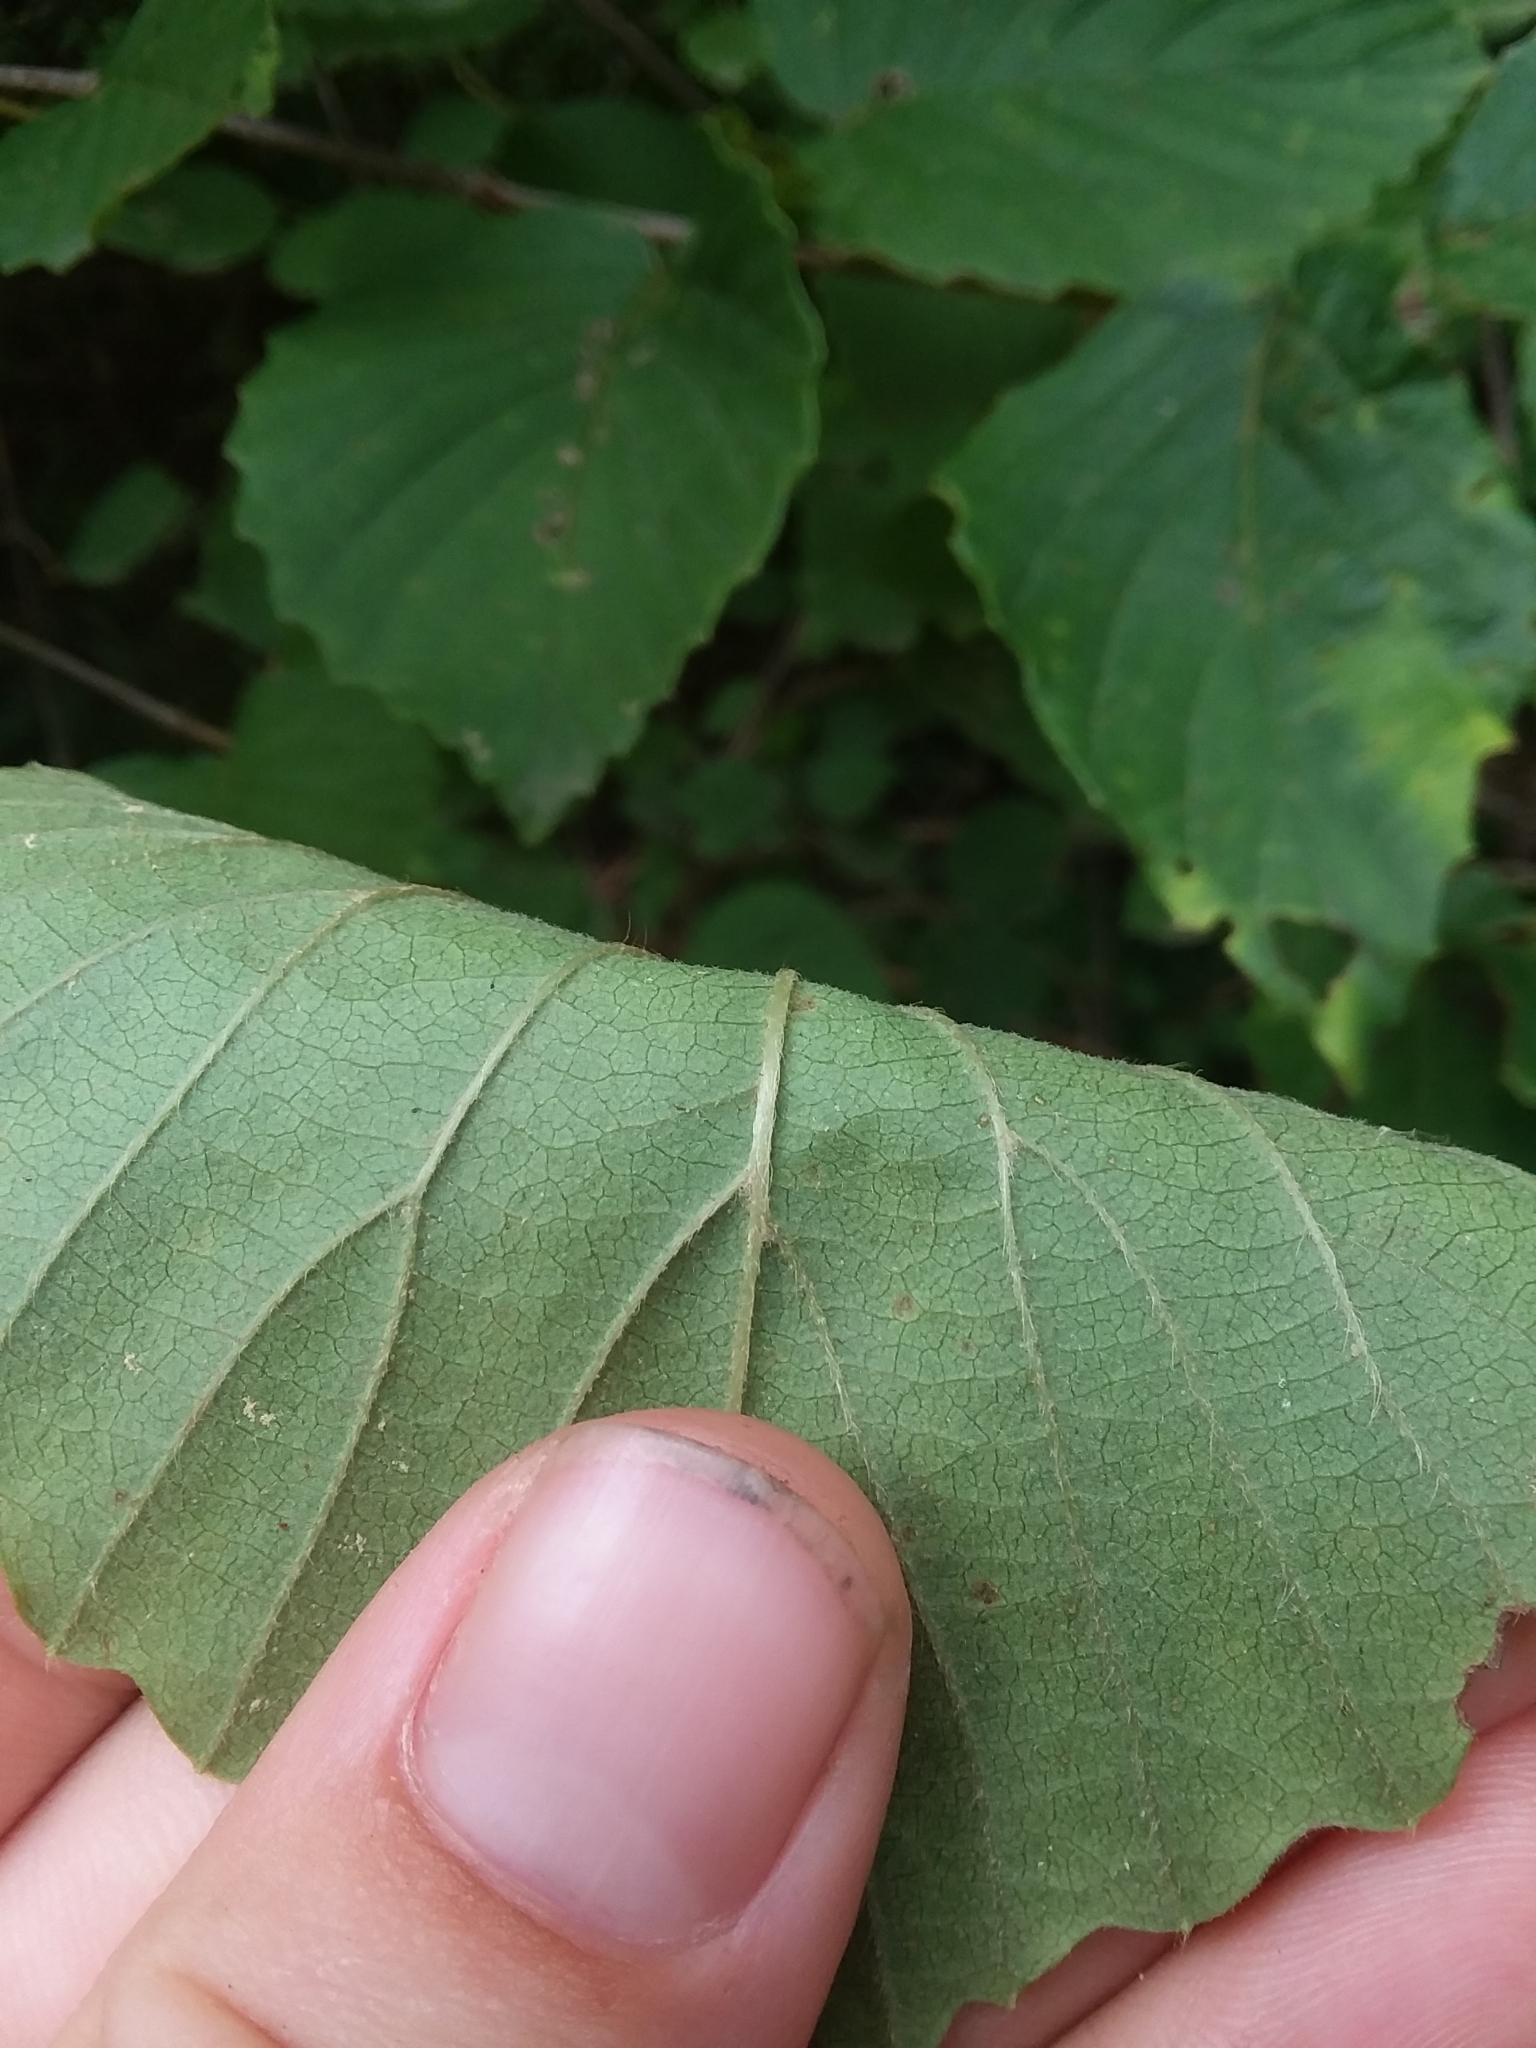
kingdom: Plantae
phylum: Tracheophyta
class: Magnoliopsida
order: Dipsacales
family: Viburnaceae
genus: Viburnum
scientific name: Viburnum scabrellum
